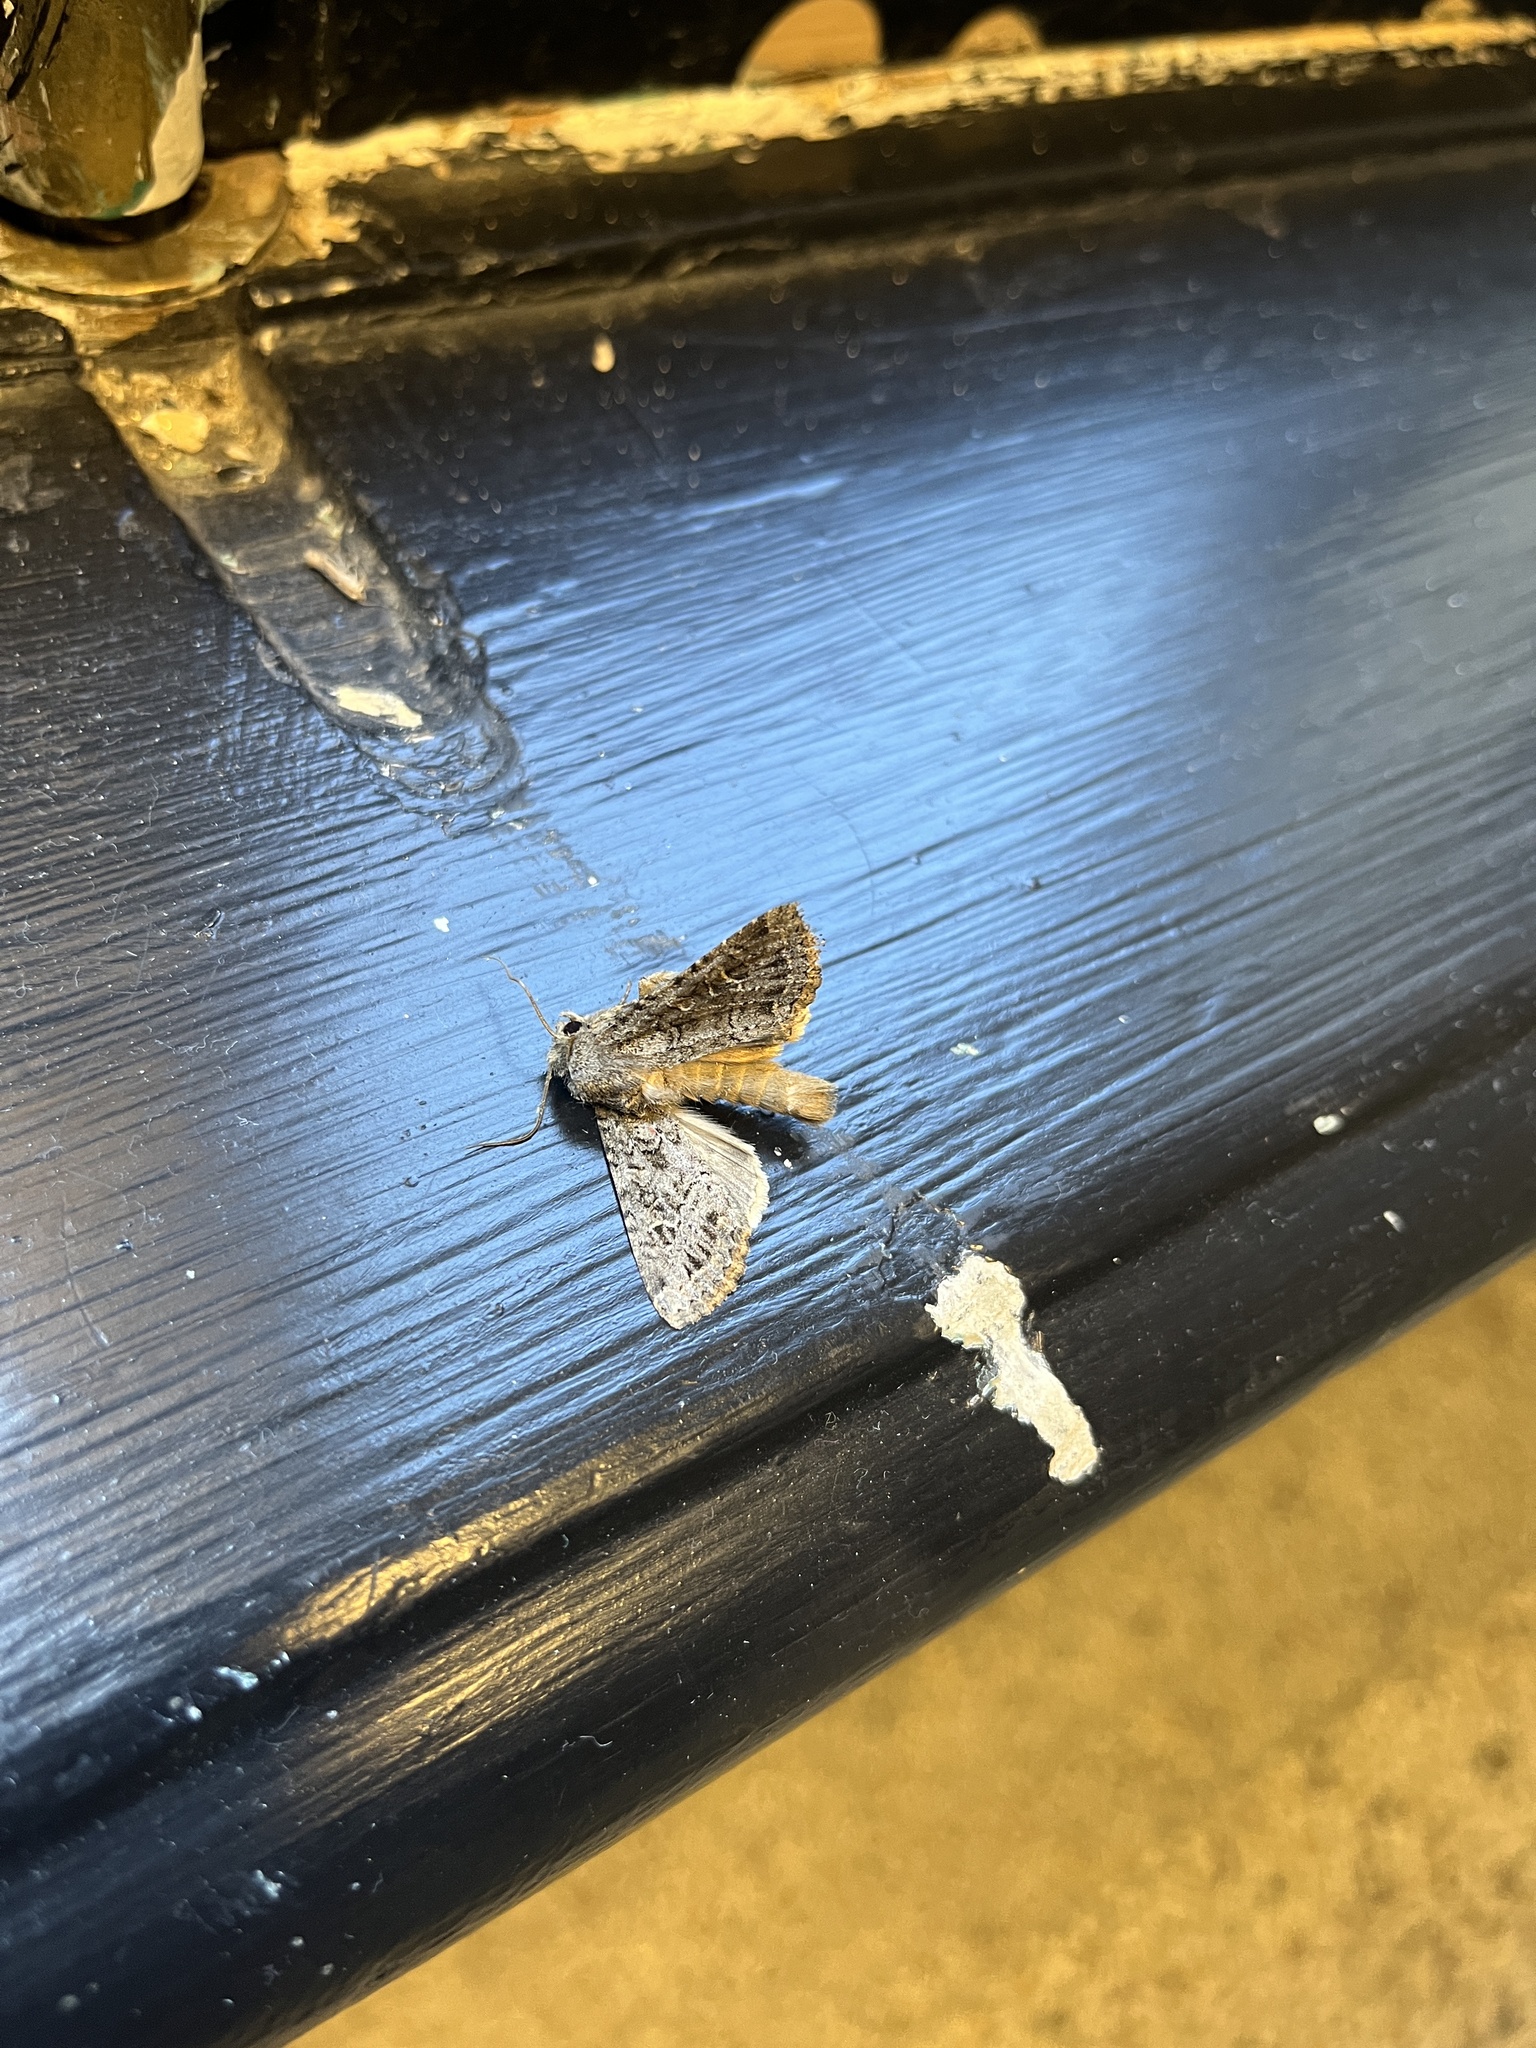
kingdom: Animalia
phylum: Arthropoda
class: Insecta
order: Lepidoptera
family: Geometridae
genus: Epirrhoe
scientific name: Epirrhoe plebeculata
